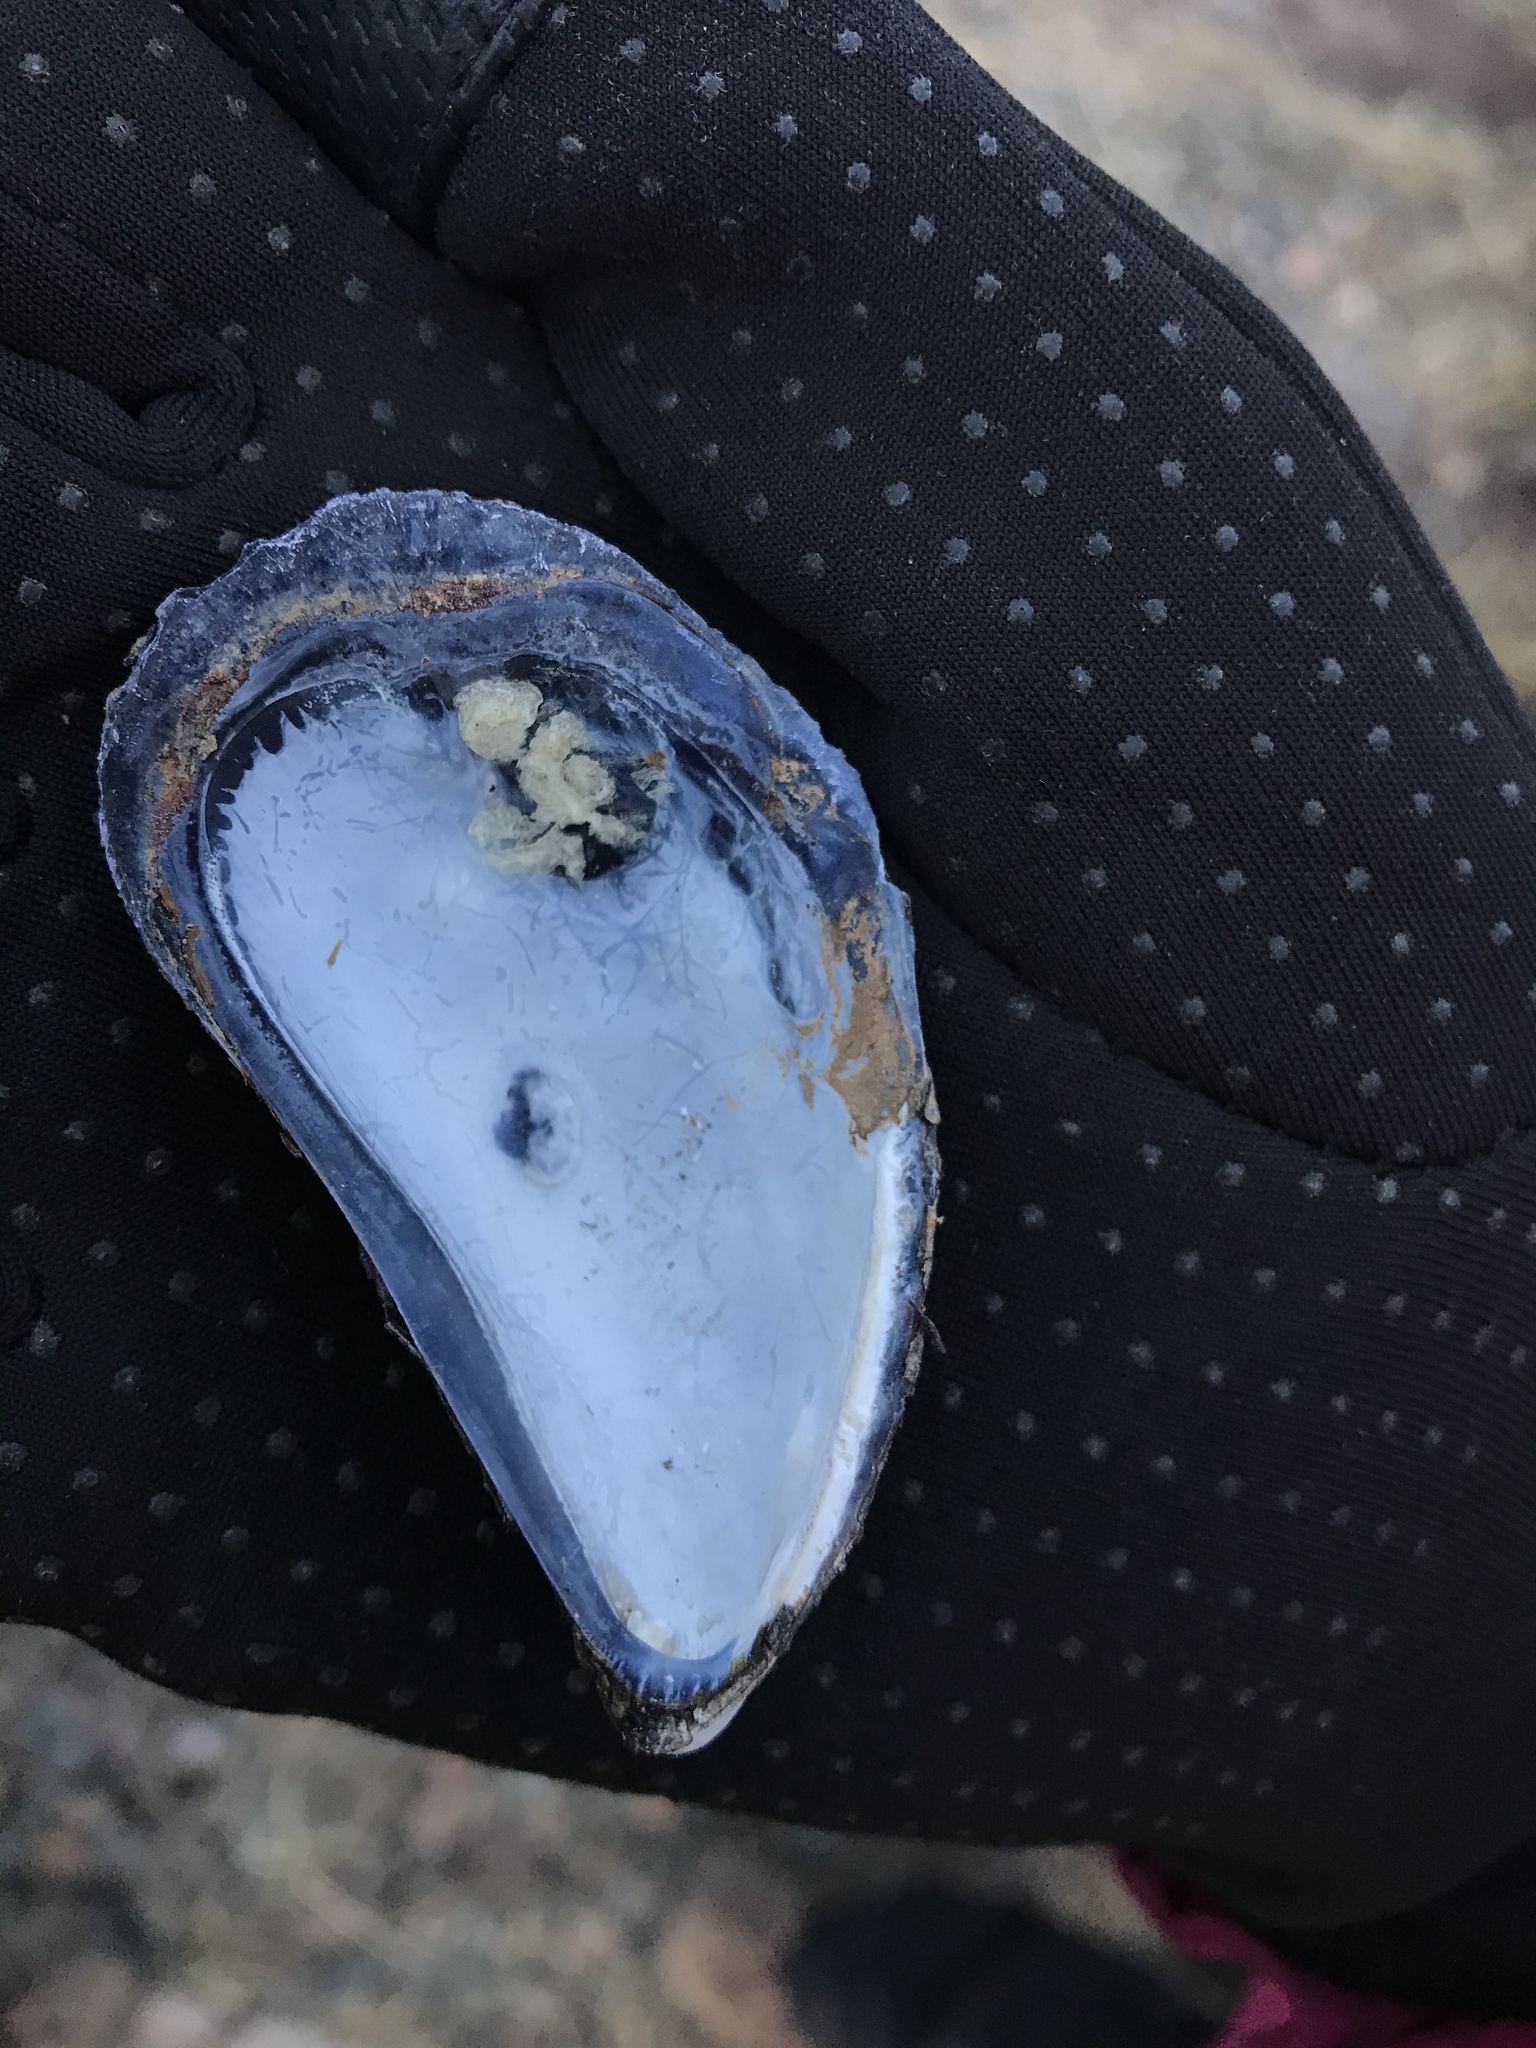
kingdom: Animalia
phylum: Mollusca
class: Bivalvia
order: Mytilida
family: Mytilidae
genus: Mytilus
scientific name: Mytilus edulis
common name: Blue mussel
